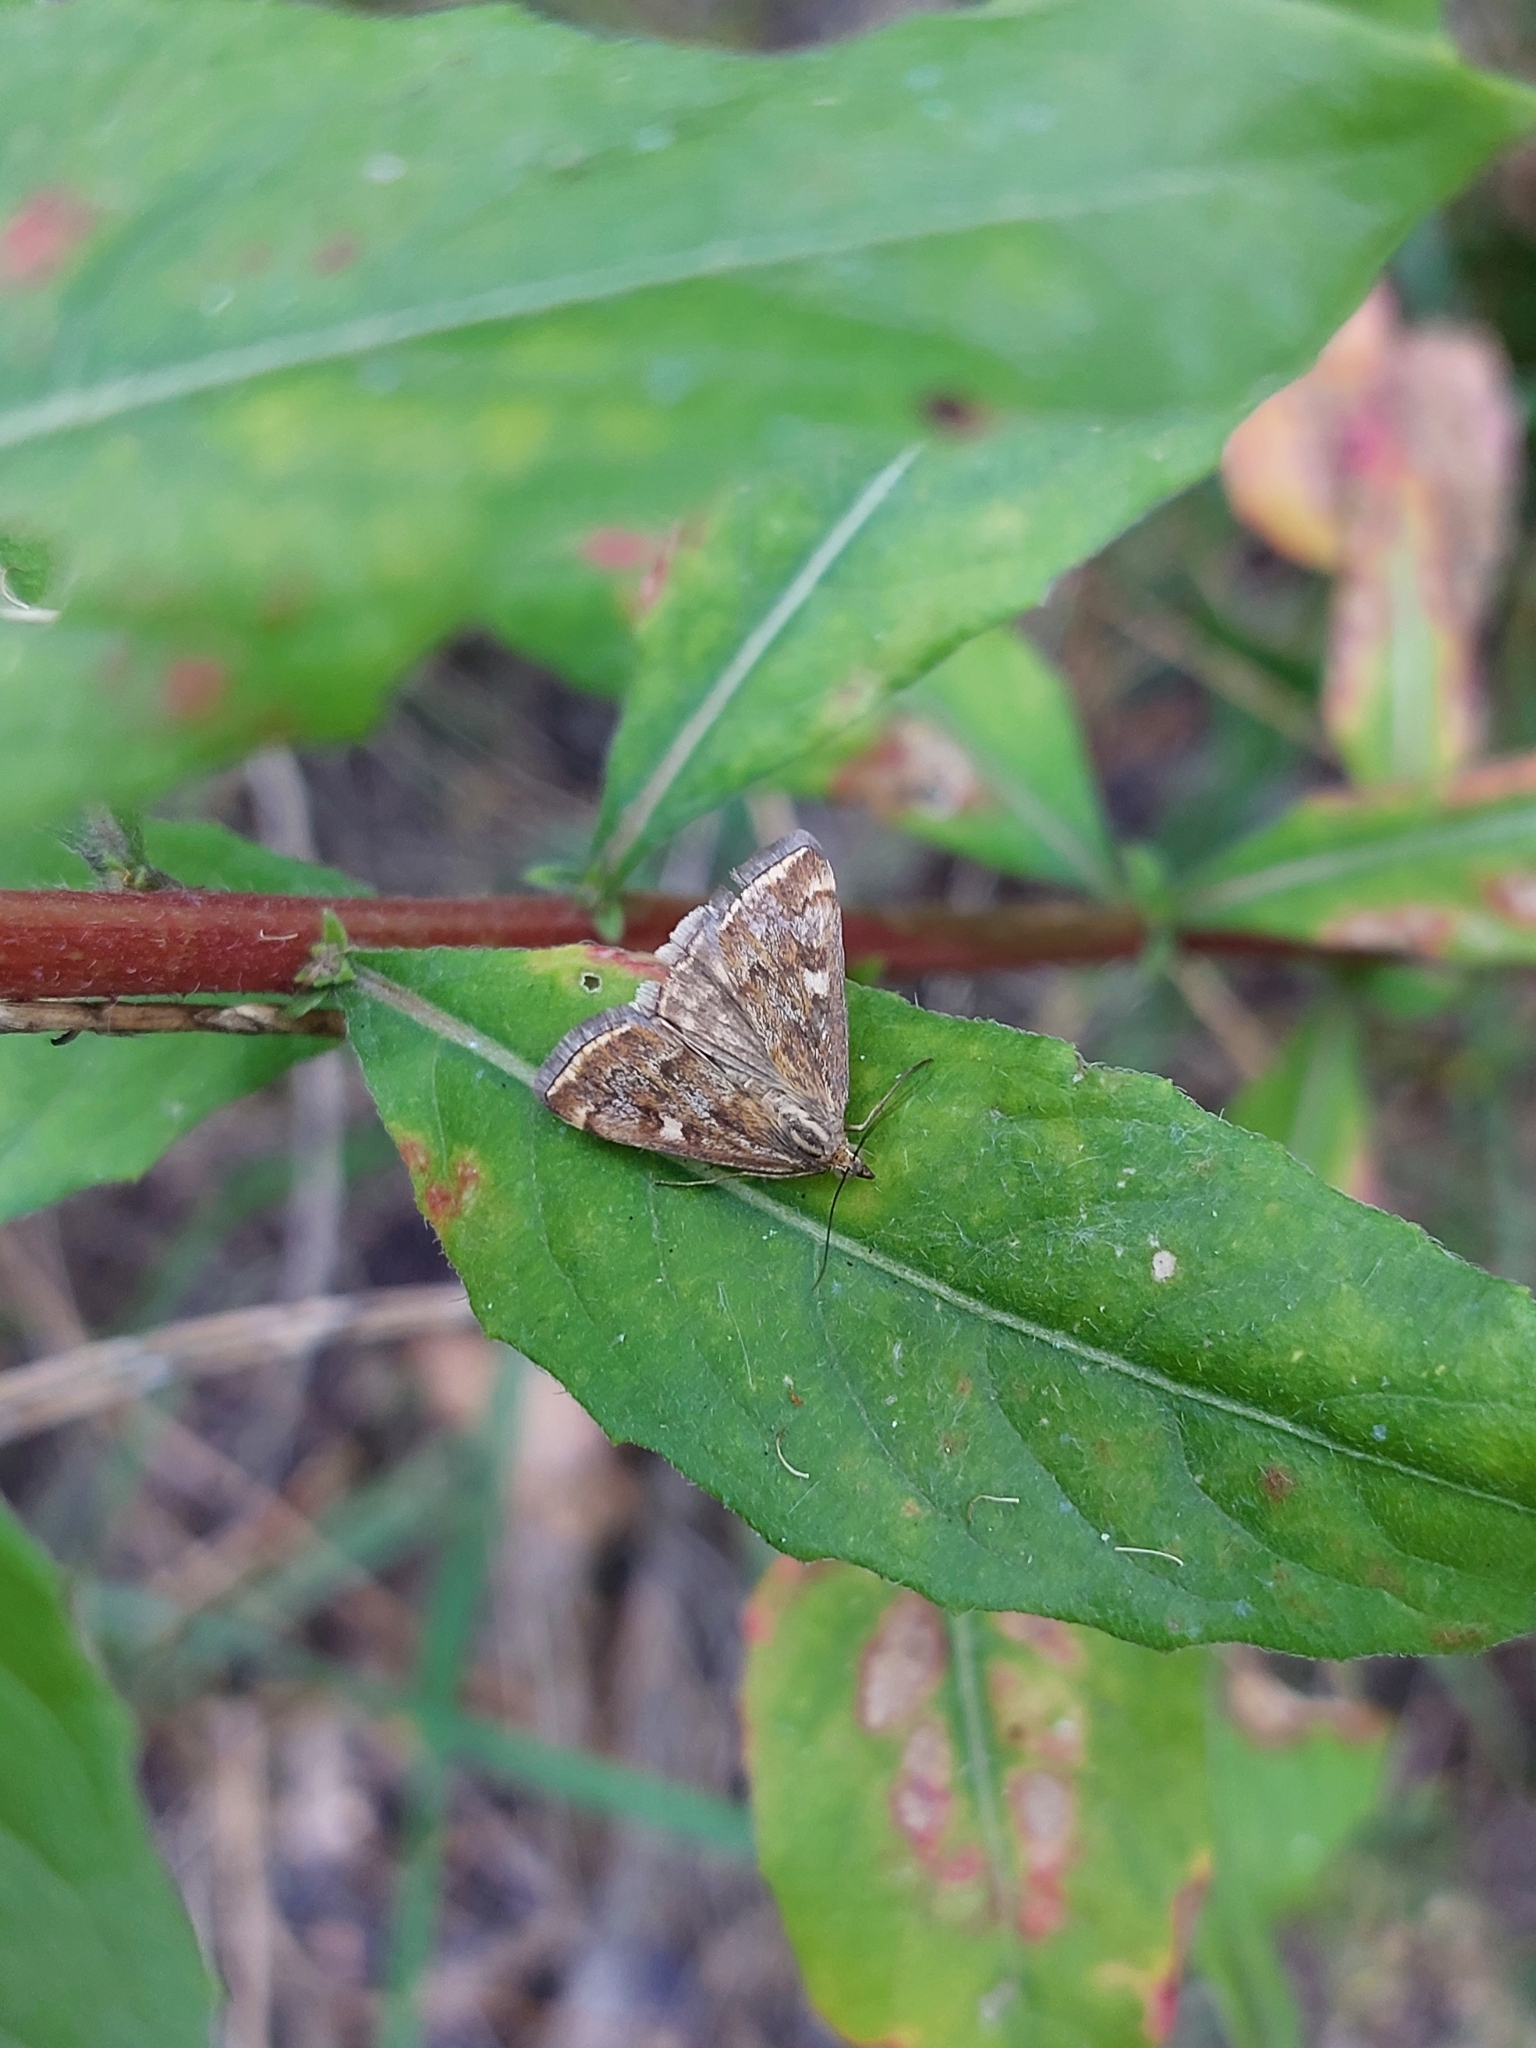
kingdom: Animalia
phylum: Arthropoda
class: Insecta
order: Lepidoptera
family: Crambidae
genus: Loxostege
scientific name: Loxostege sticticalis
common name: Crambid moth
